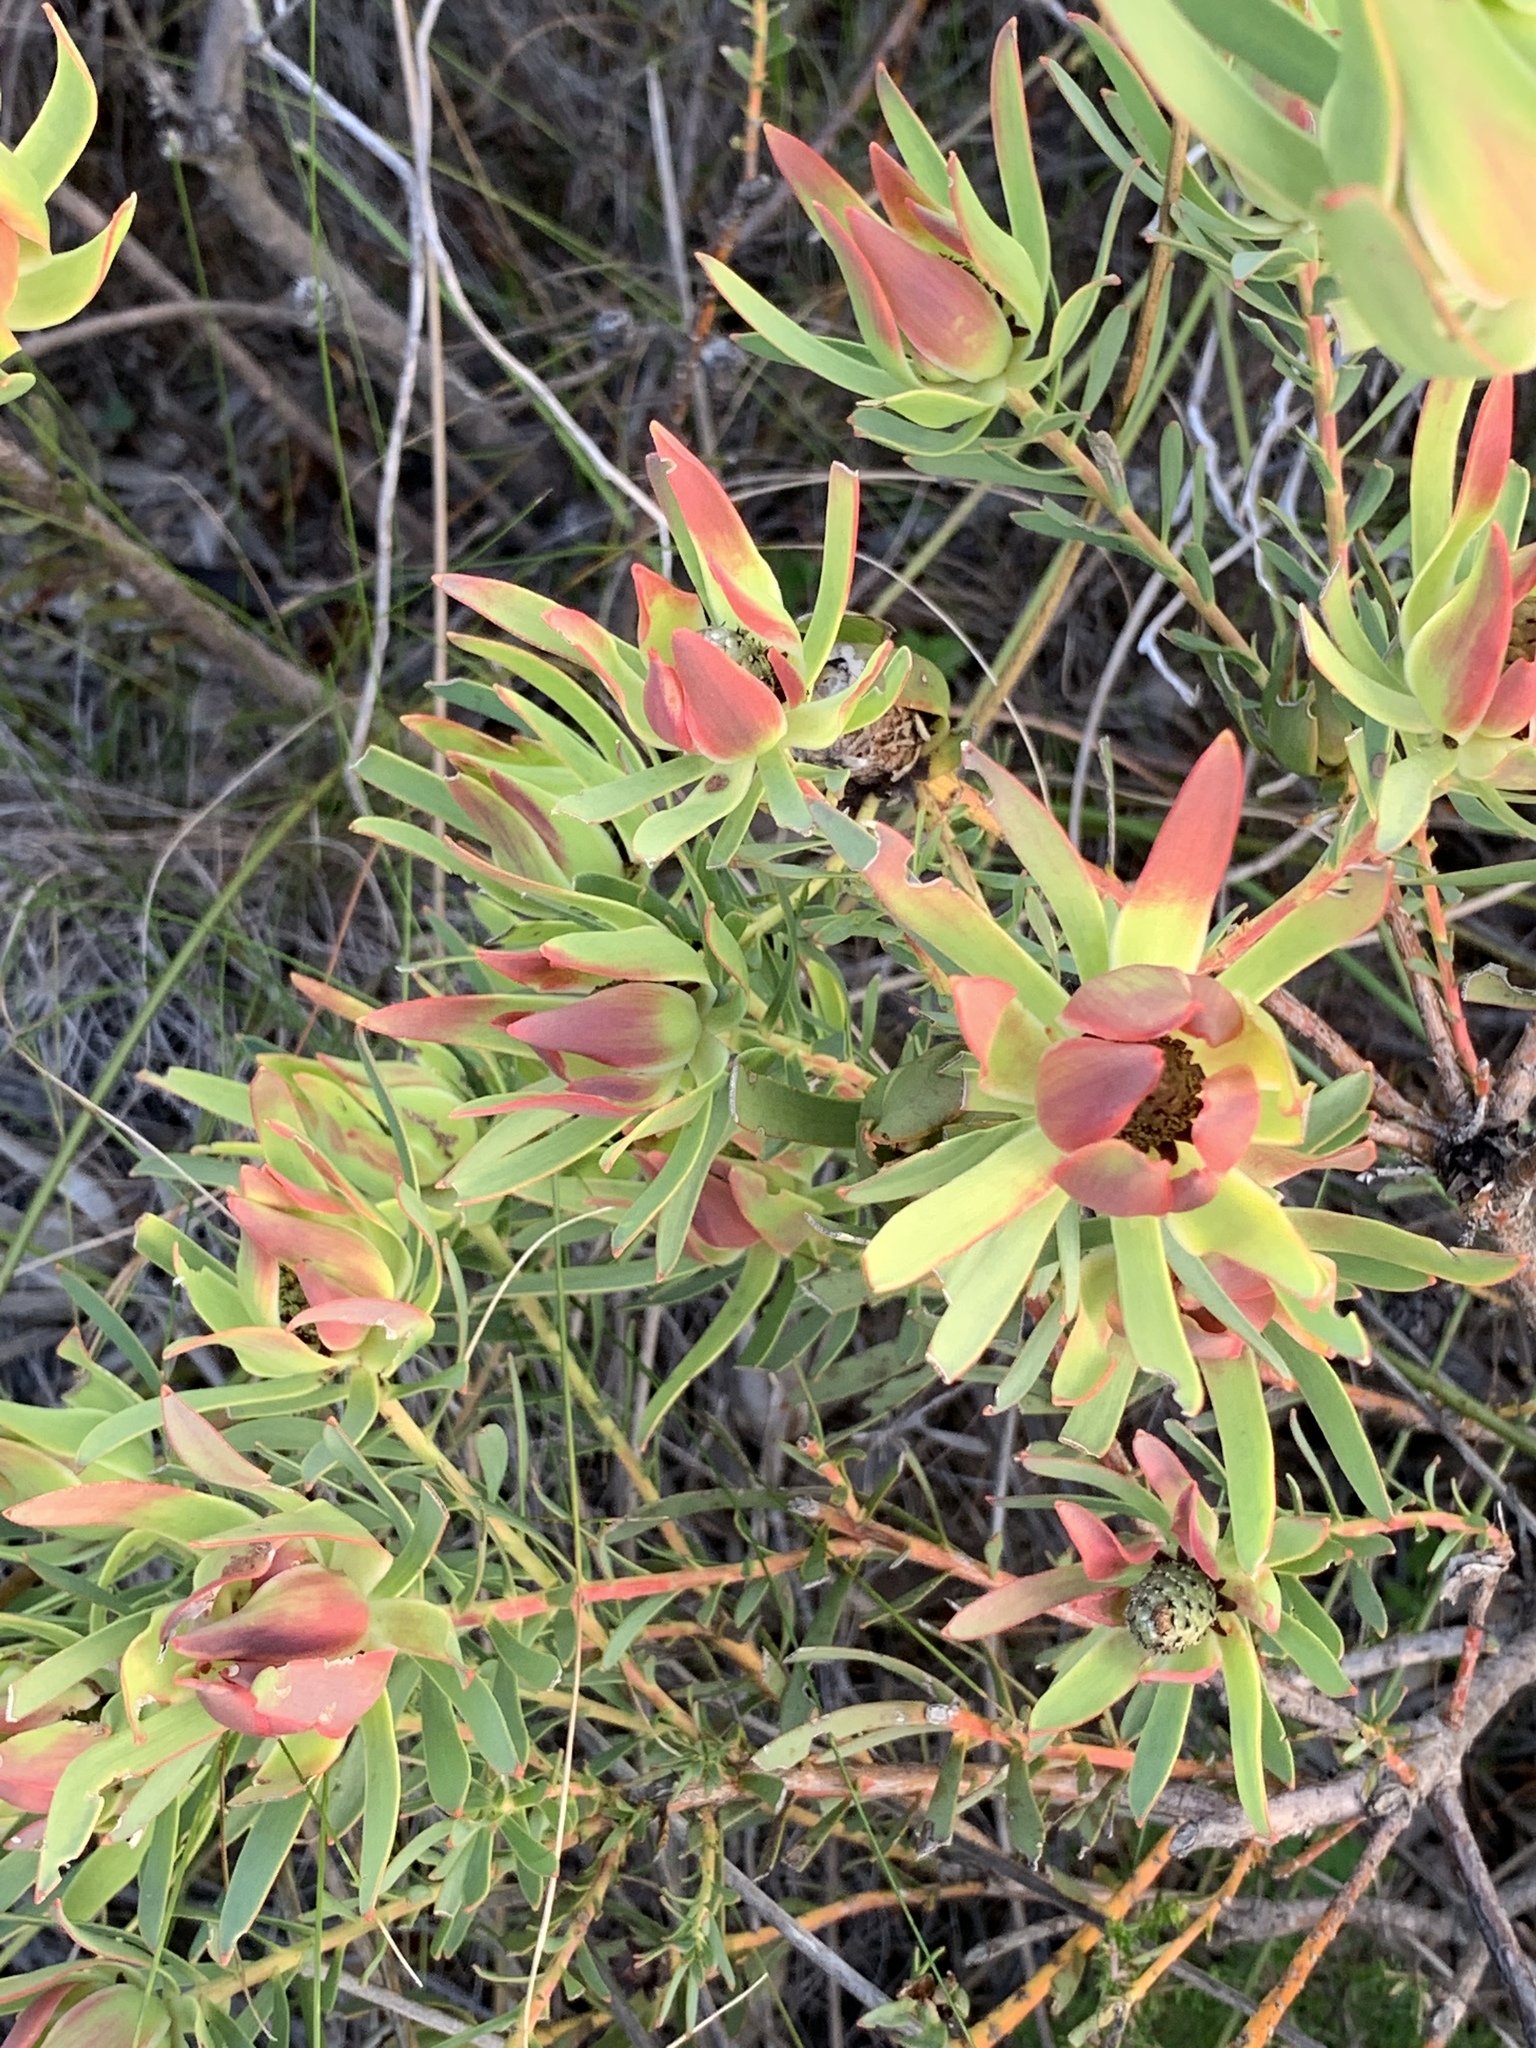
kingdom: Plantae
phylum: Tracheophyta
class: Magnoliopsida
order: Proteales
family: Proteaceae
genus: Leucadendron
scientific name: Leucadendron salignum
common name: Common sunshine conebush
